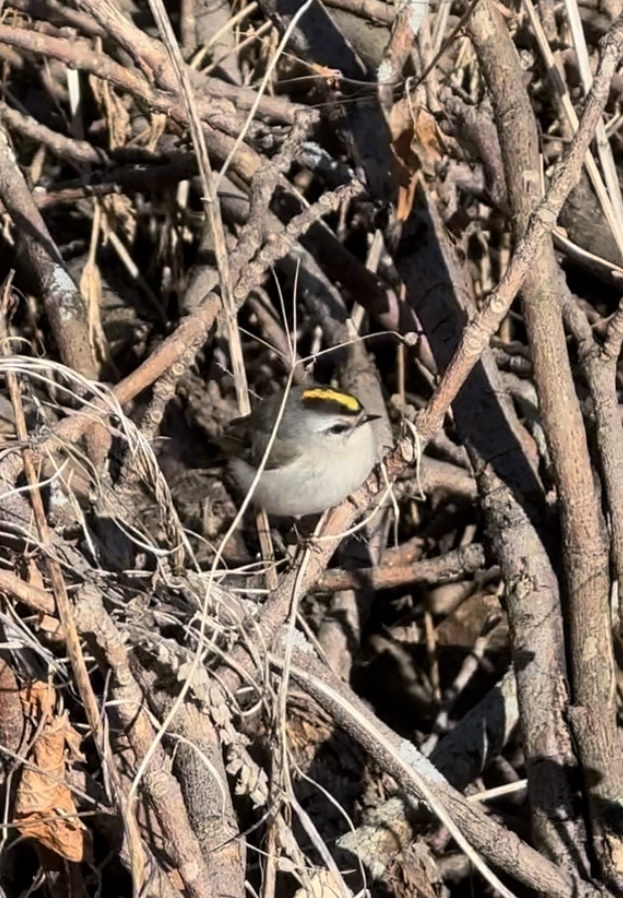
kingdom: Animalia
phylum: Chordata
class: Aves
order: Passeriformes
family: Regulidae
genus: Regulus
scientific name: Regulus satrapa
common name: Golden-crowned kinglet
